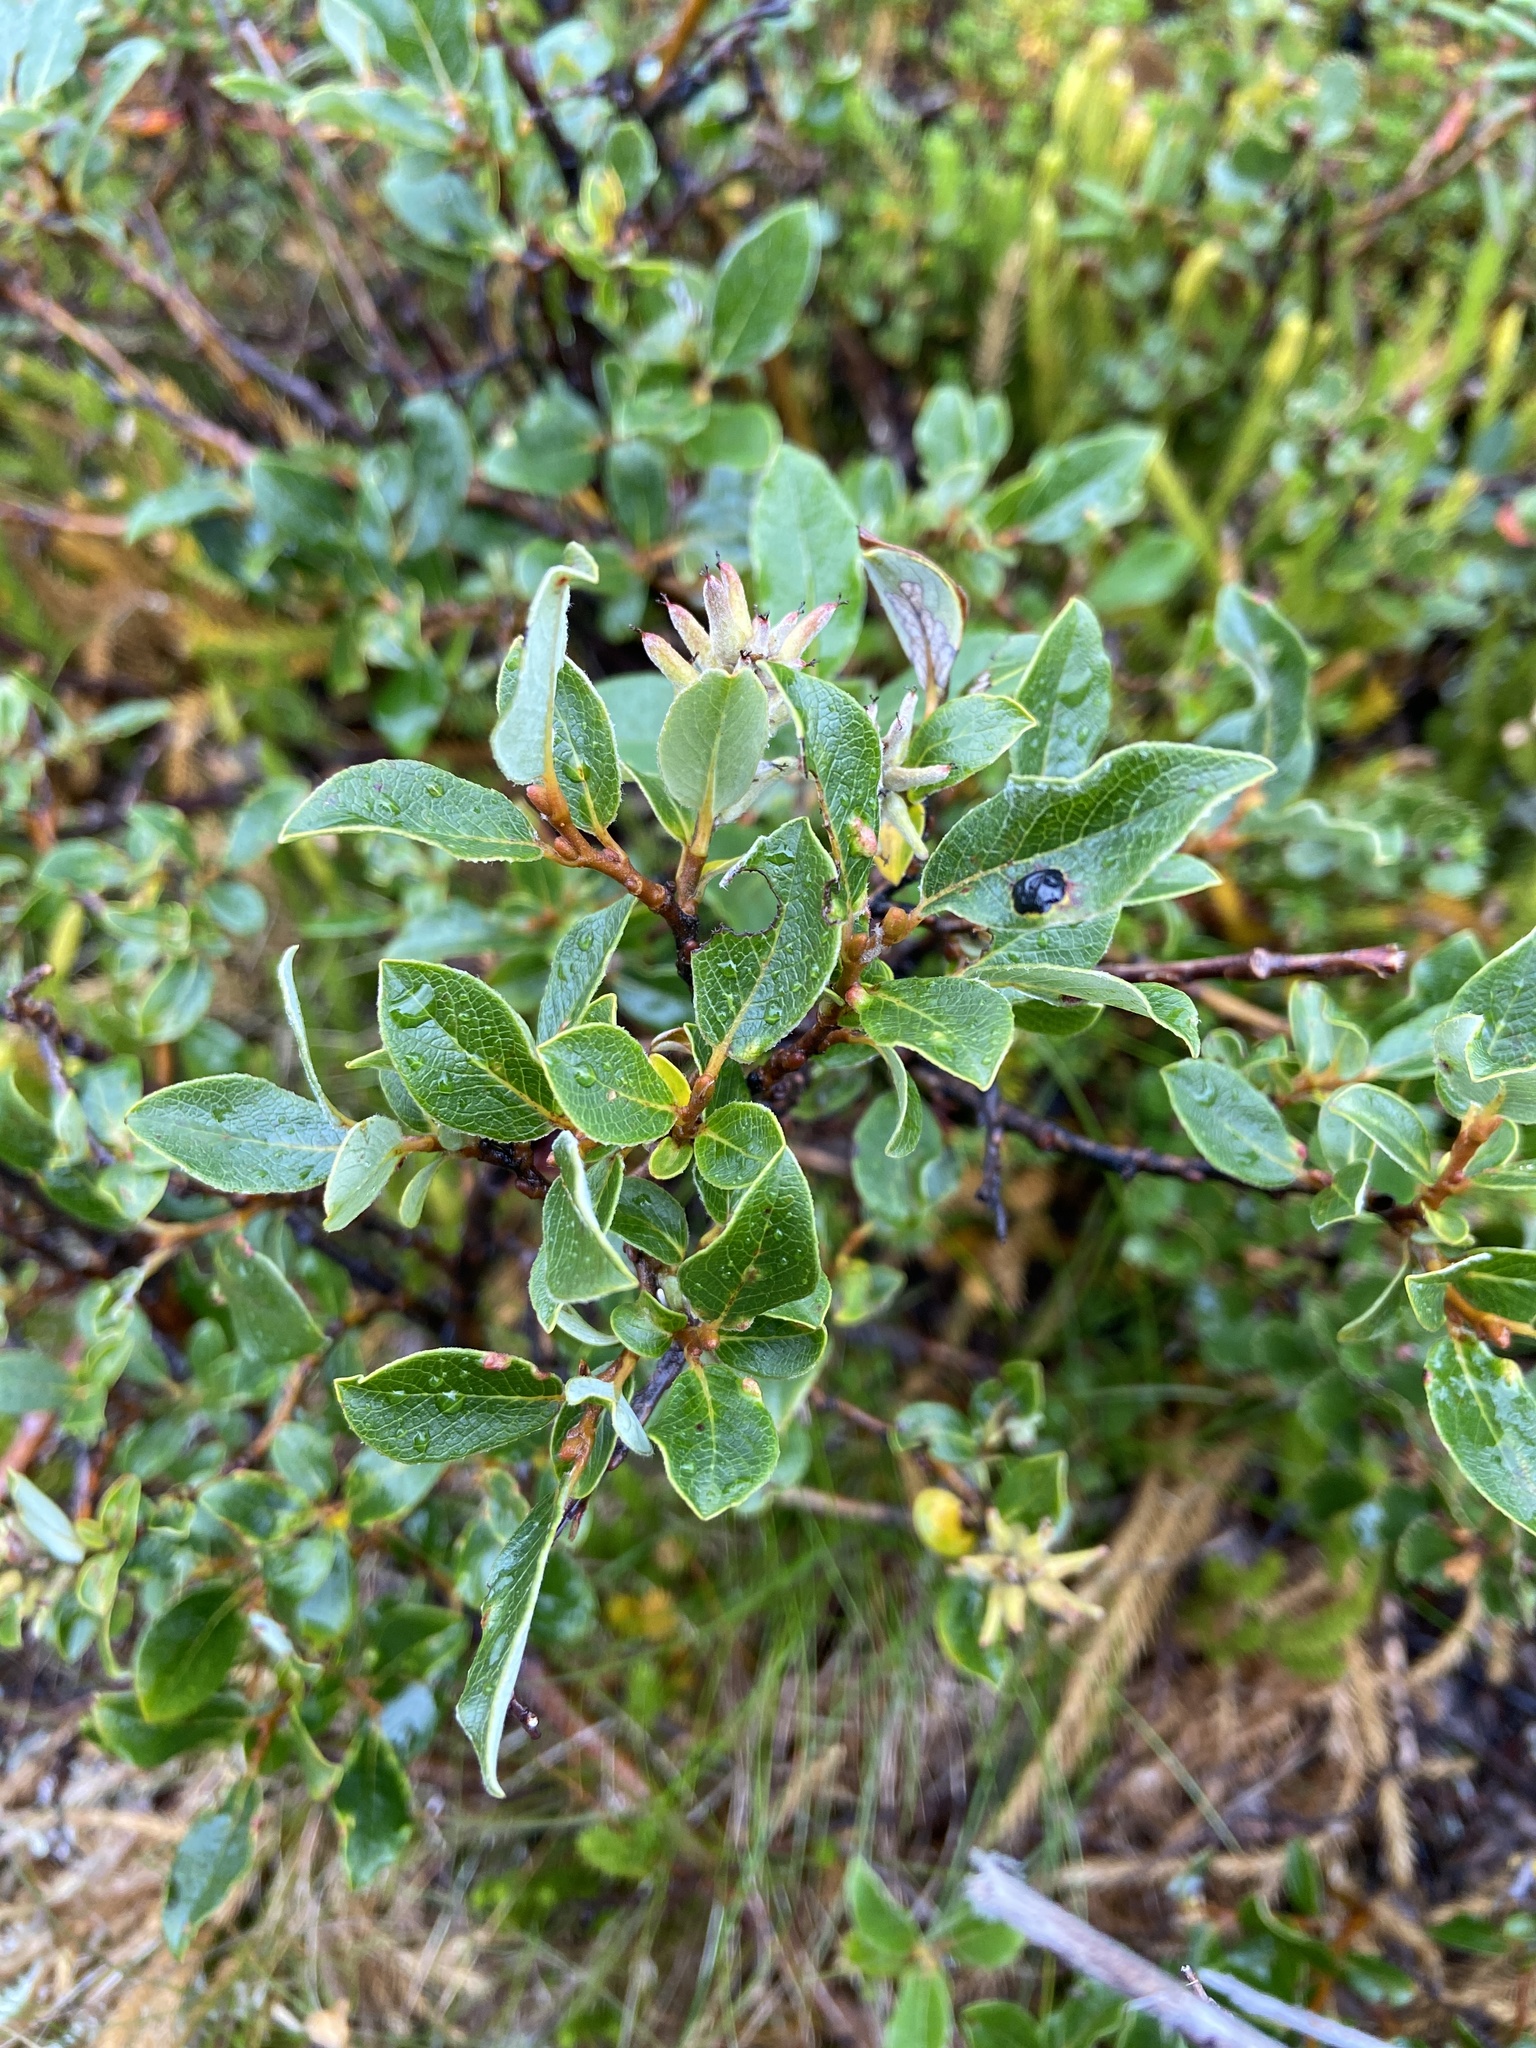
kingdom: Plantae
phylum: Tracheophyta
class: Magnoliopsida
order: Malpighiales
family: Salicaceae
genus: Salix
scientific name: Salix glauca
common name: Glaucous willow
